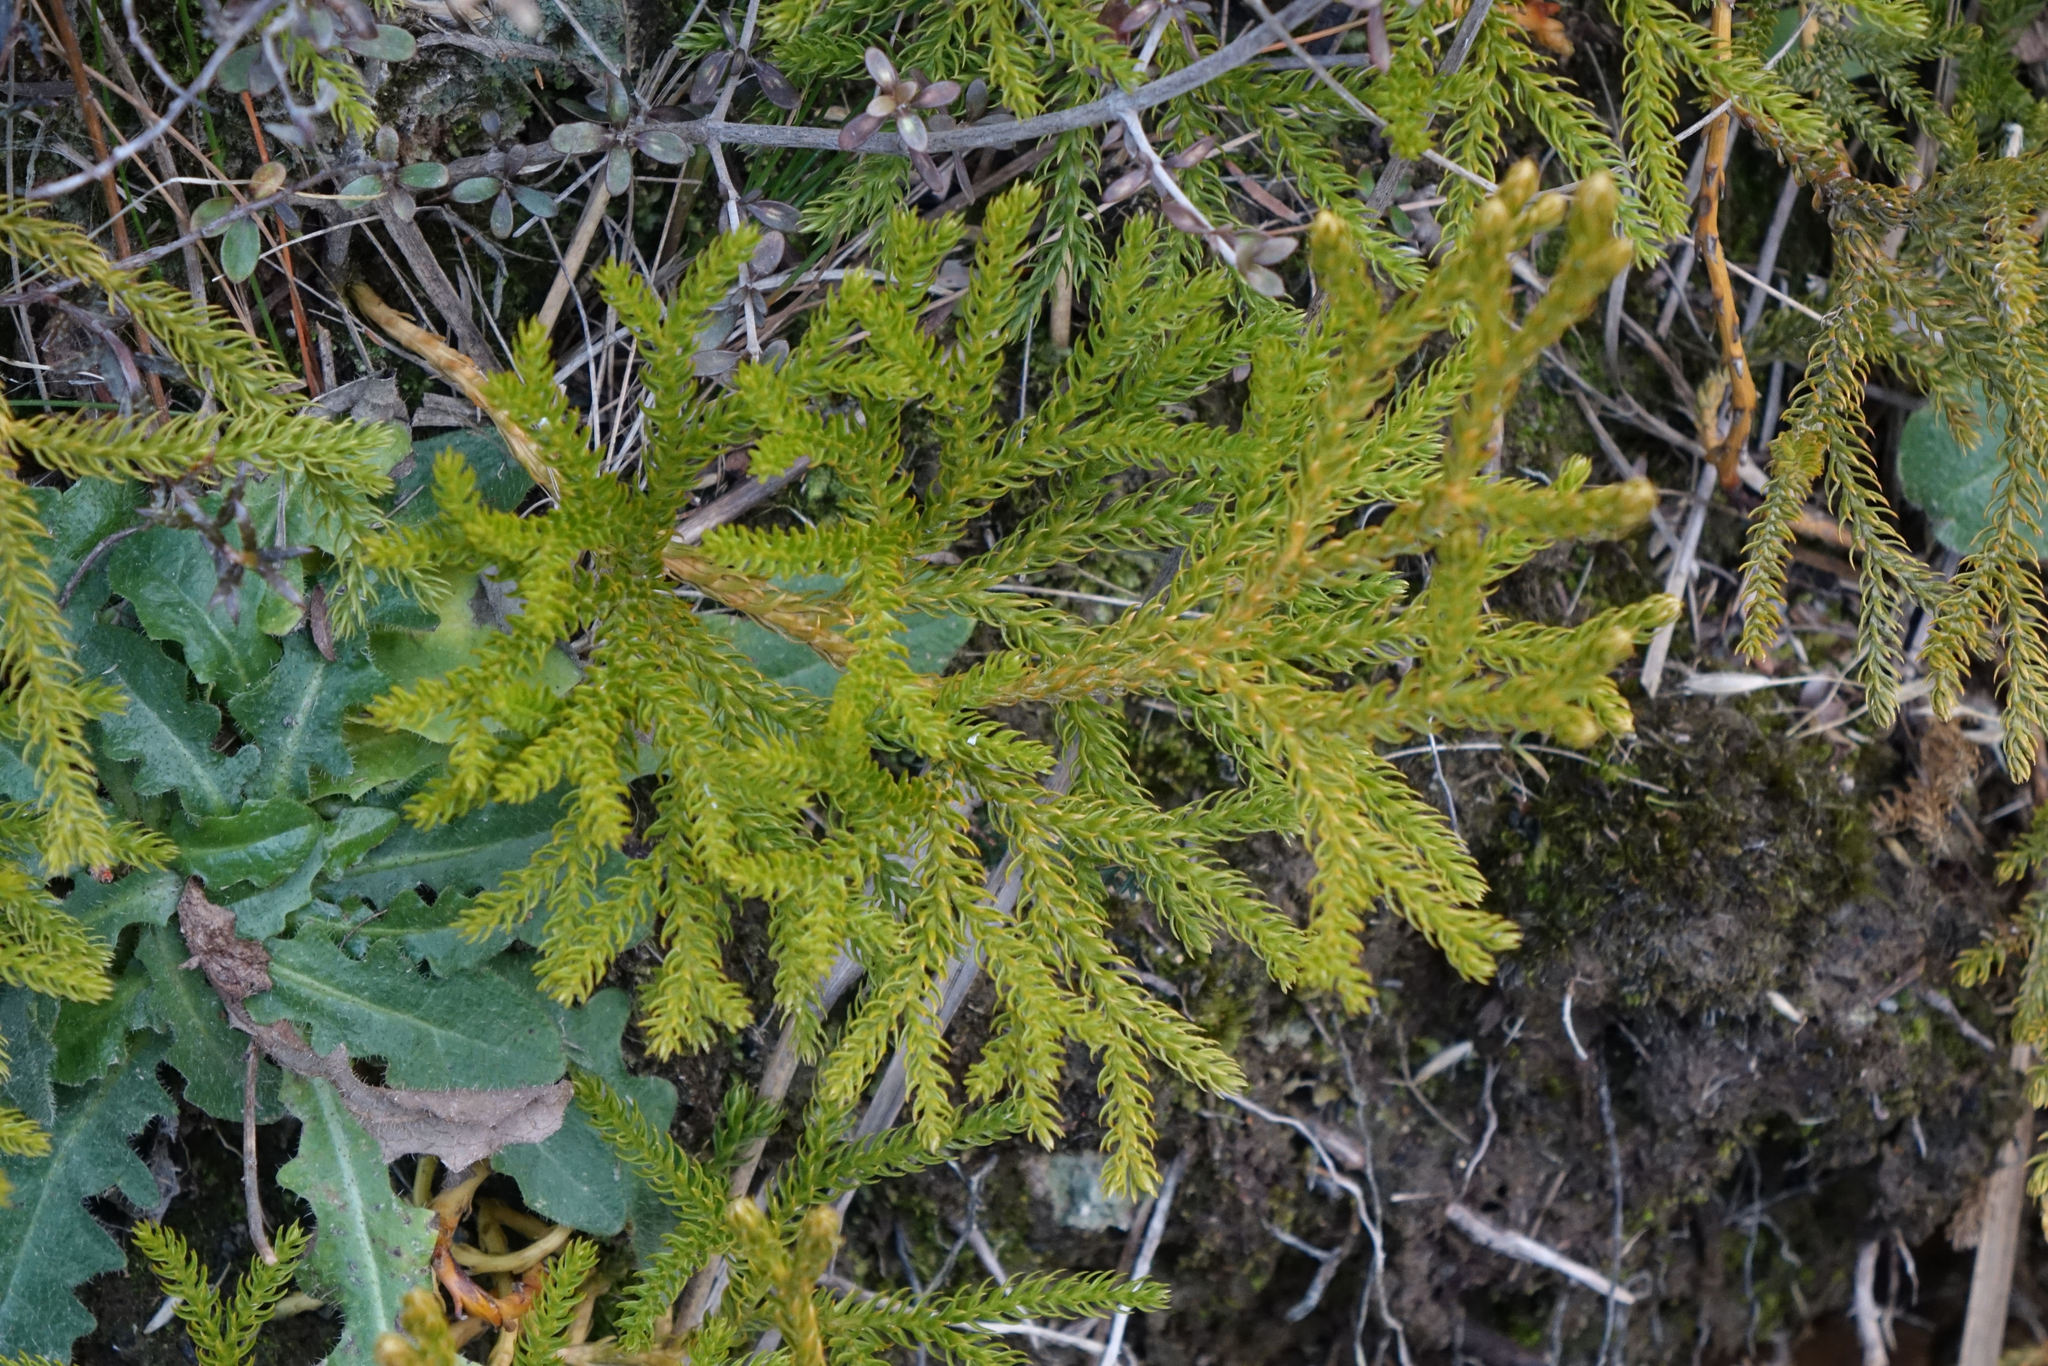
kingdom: Plantae
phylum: Tracheophyta
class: Lycopodiopsida
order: Lycopodiales
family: Lycopodiaceae
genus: Austrolycopodium
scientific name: Austrolycopodium fastigiatum
